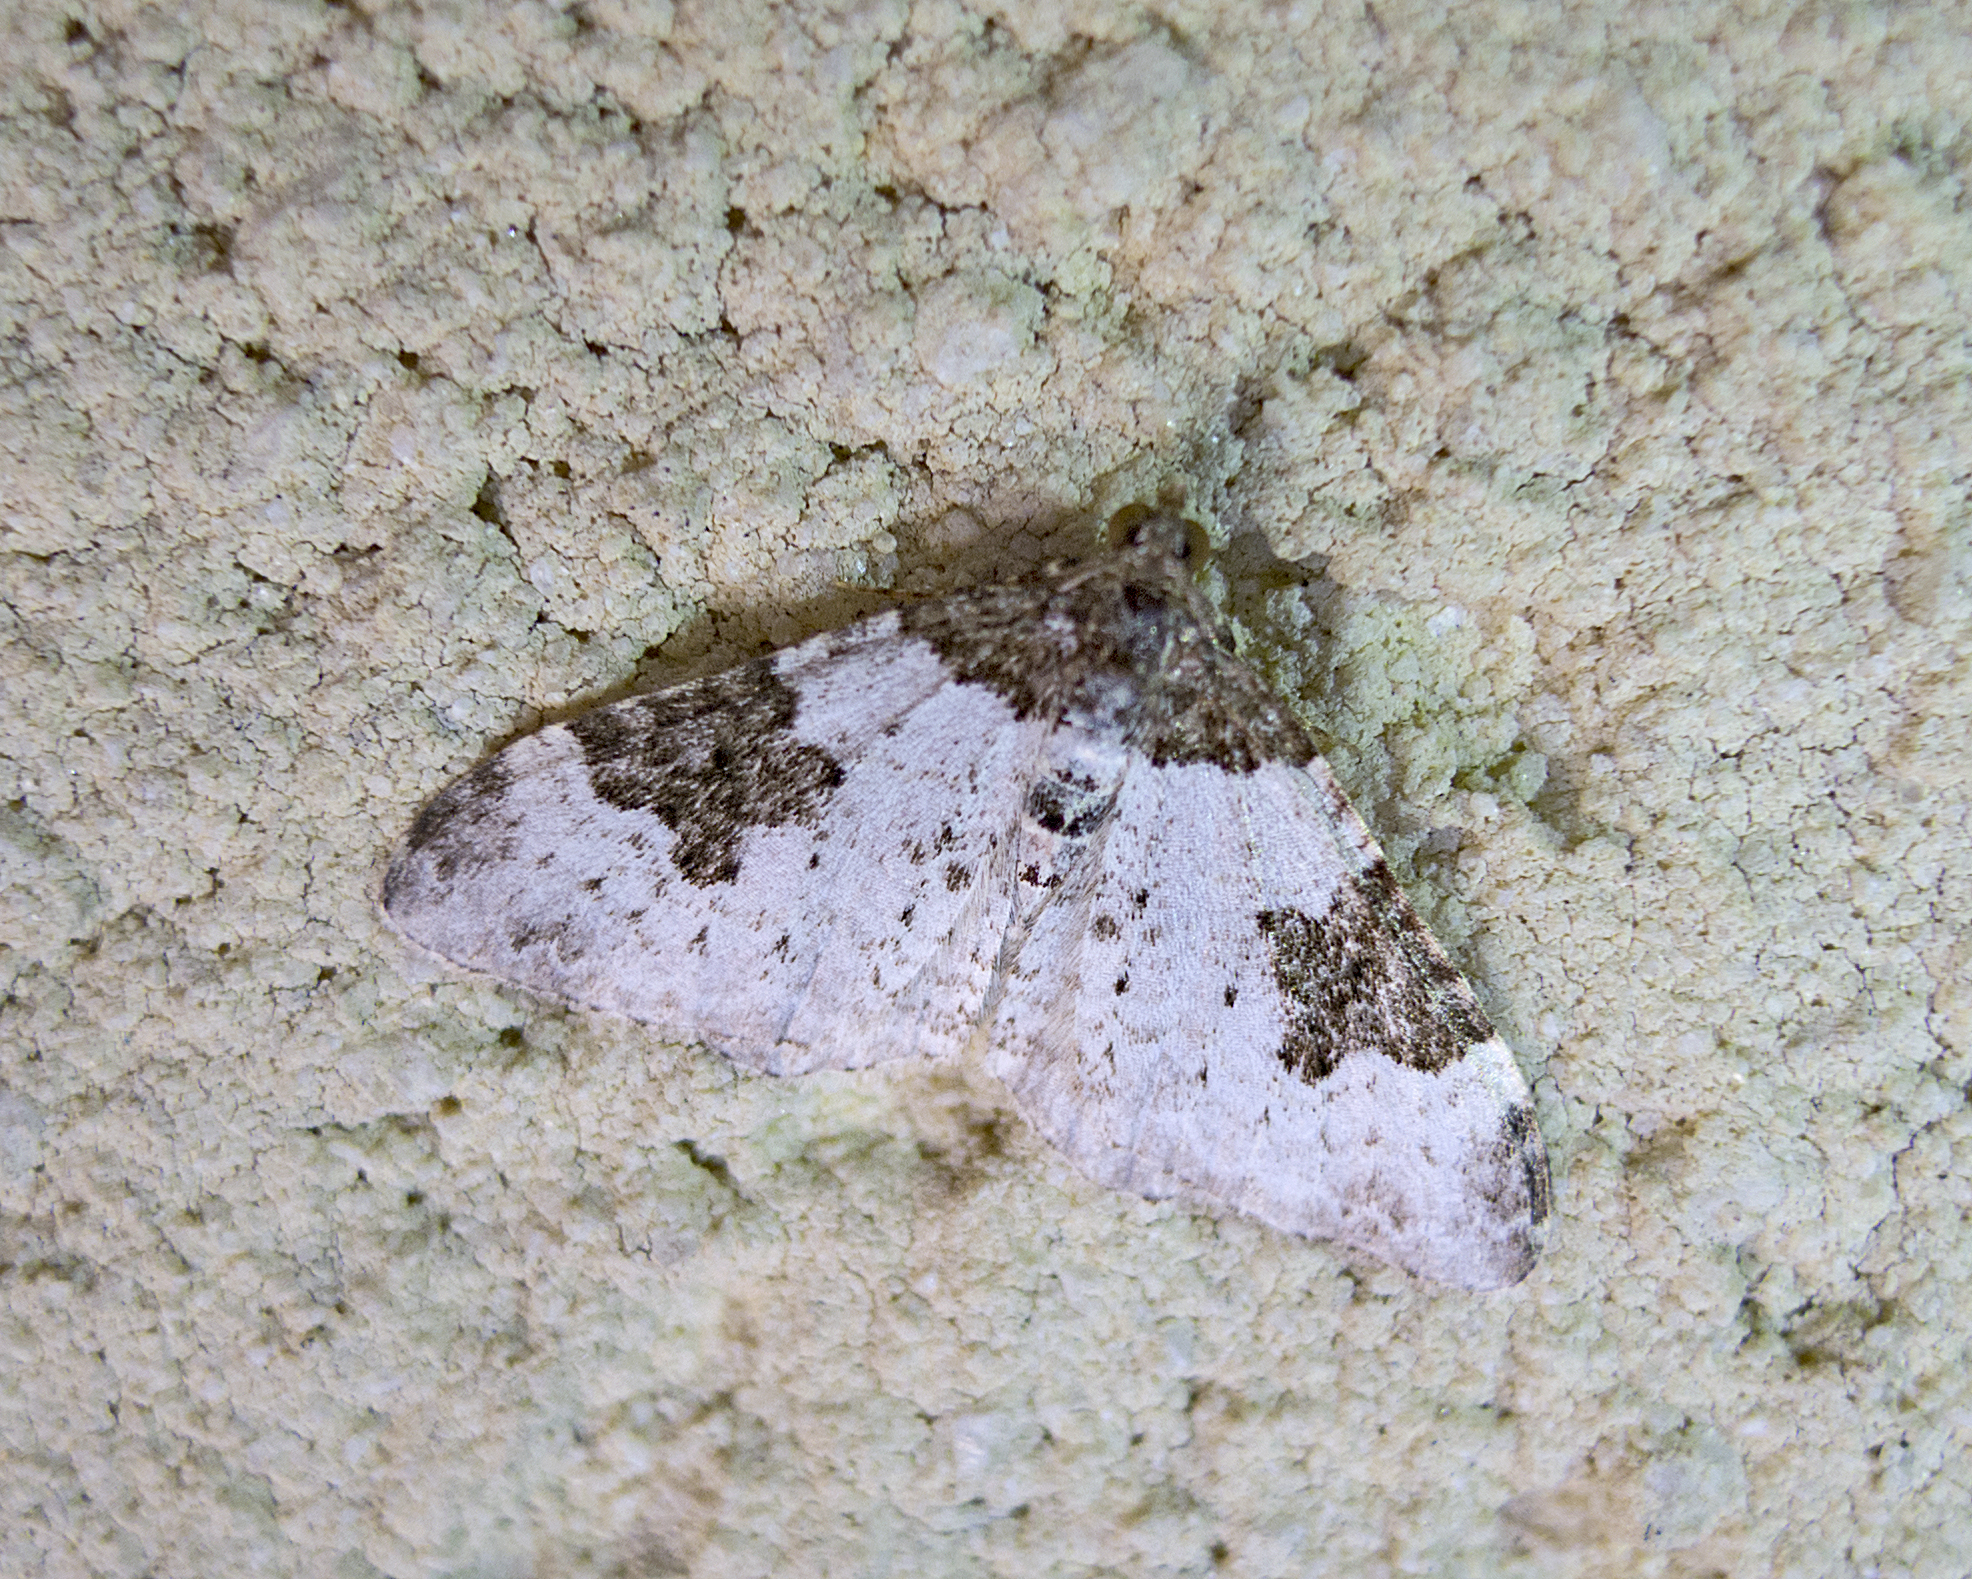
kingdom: Animalia
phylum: Arthropoda
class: Insecta
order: Lepidoptera
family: Geometridae
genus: Xanthorhoe
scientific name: Xanthorhoe fluctuata
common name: Garden carpet
